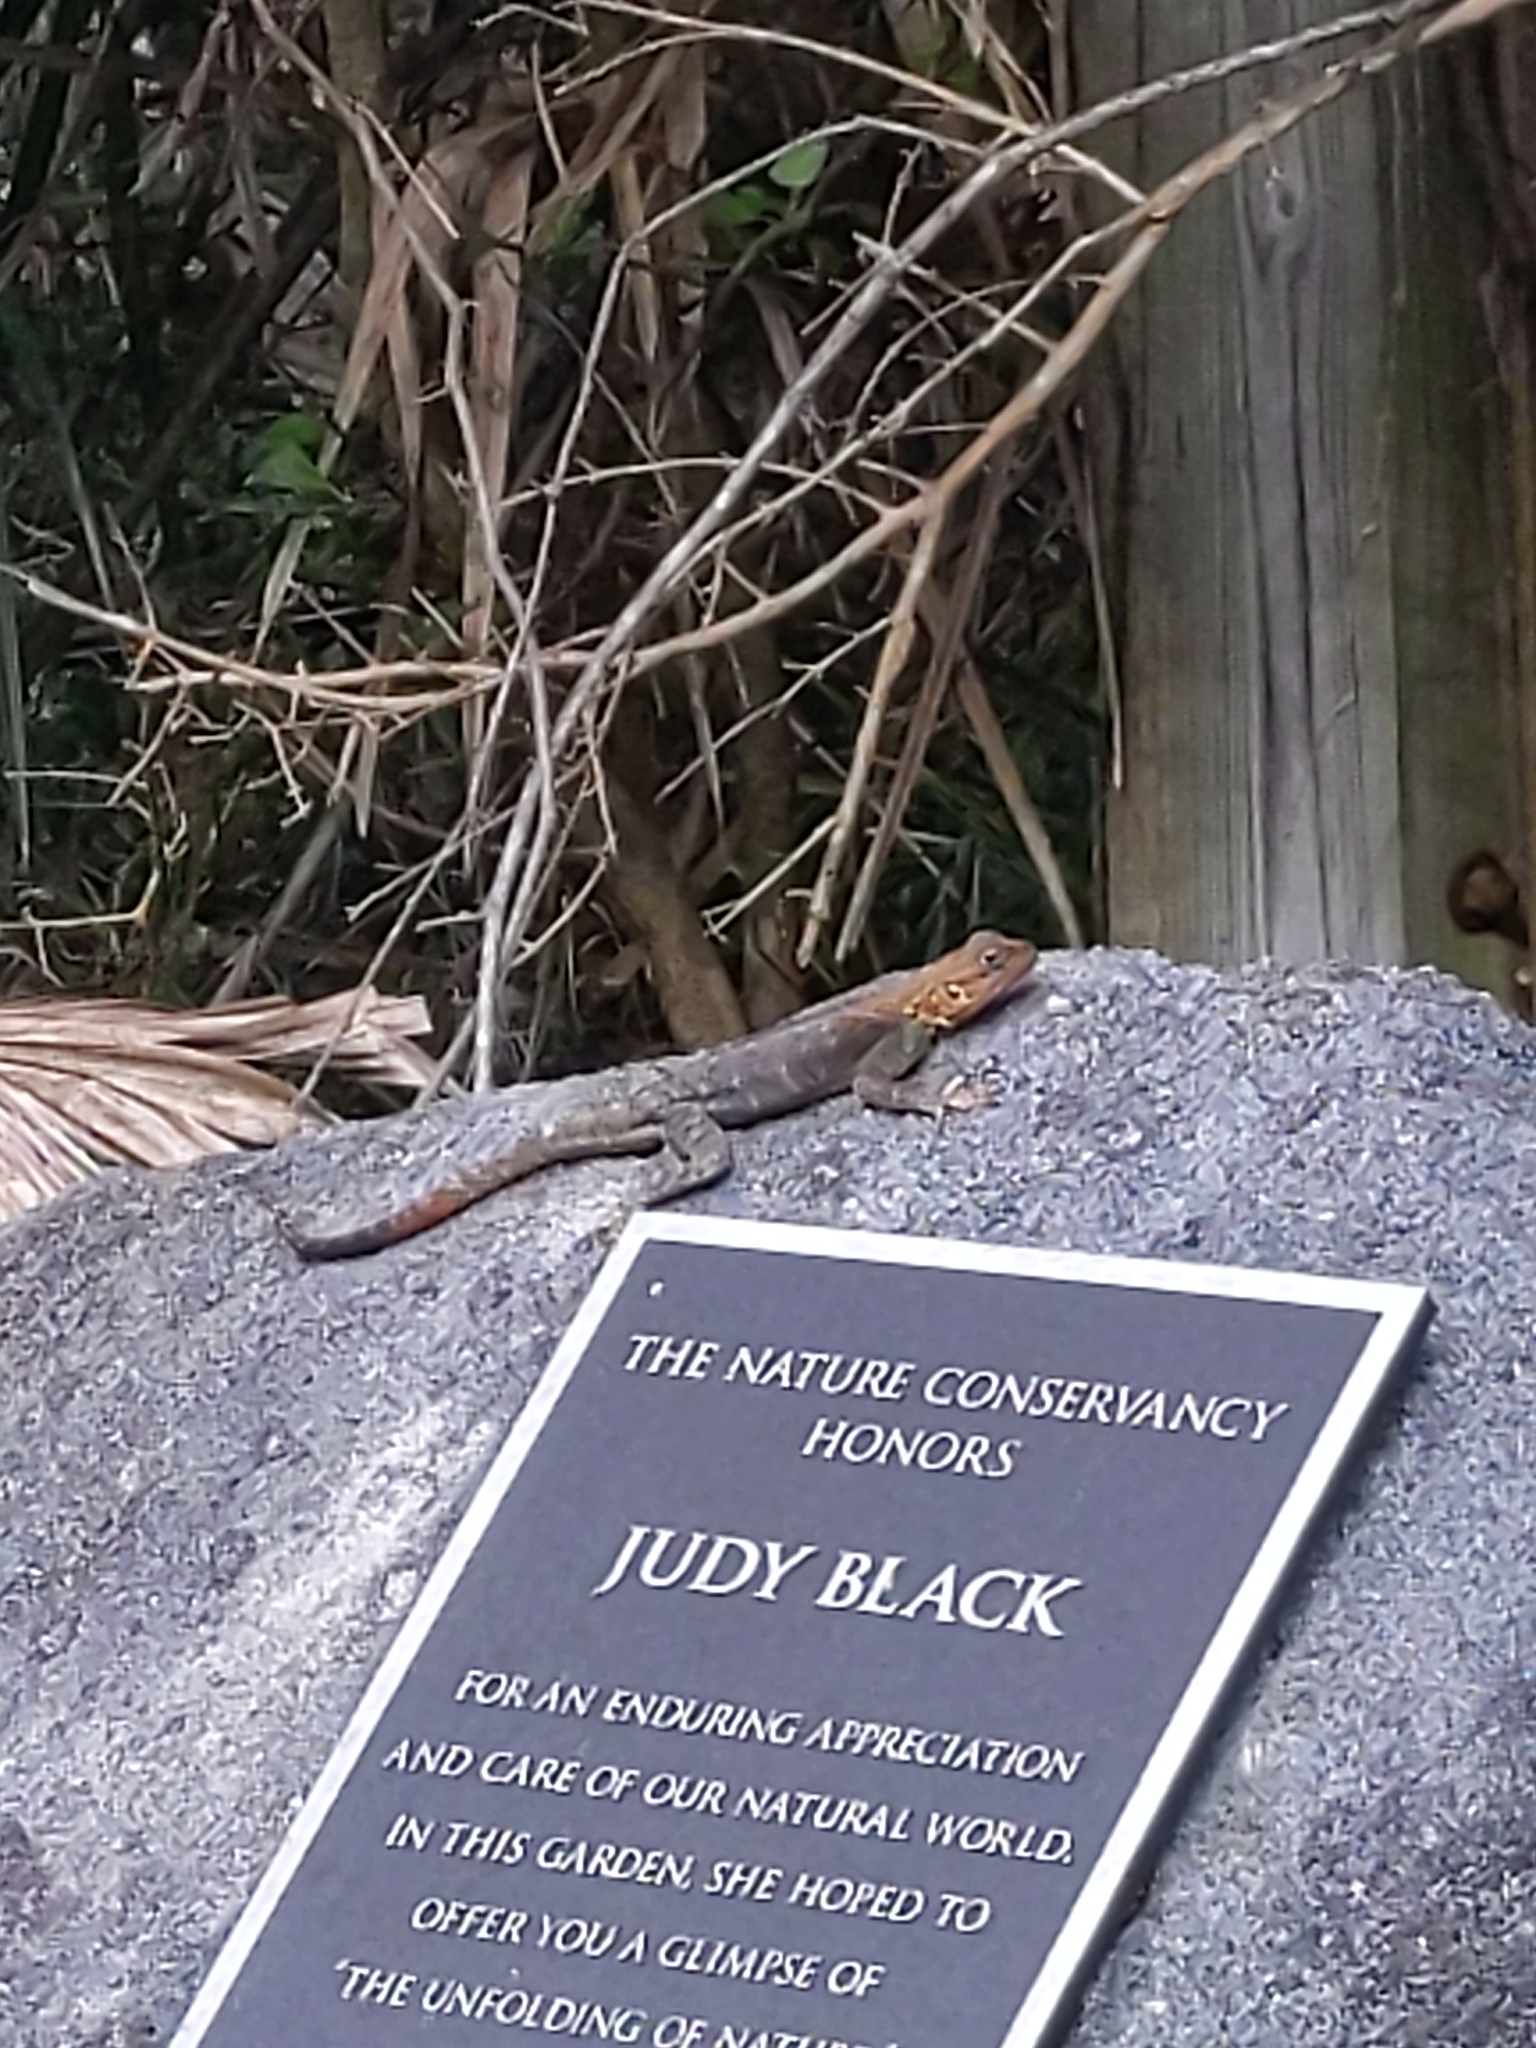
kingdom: Animalia
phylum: Chordata
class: Squamata
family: Agamidae
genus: Agama
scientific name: Agama picticauda
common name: Red-headed agama
